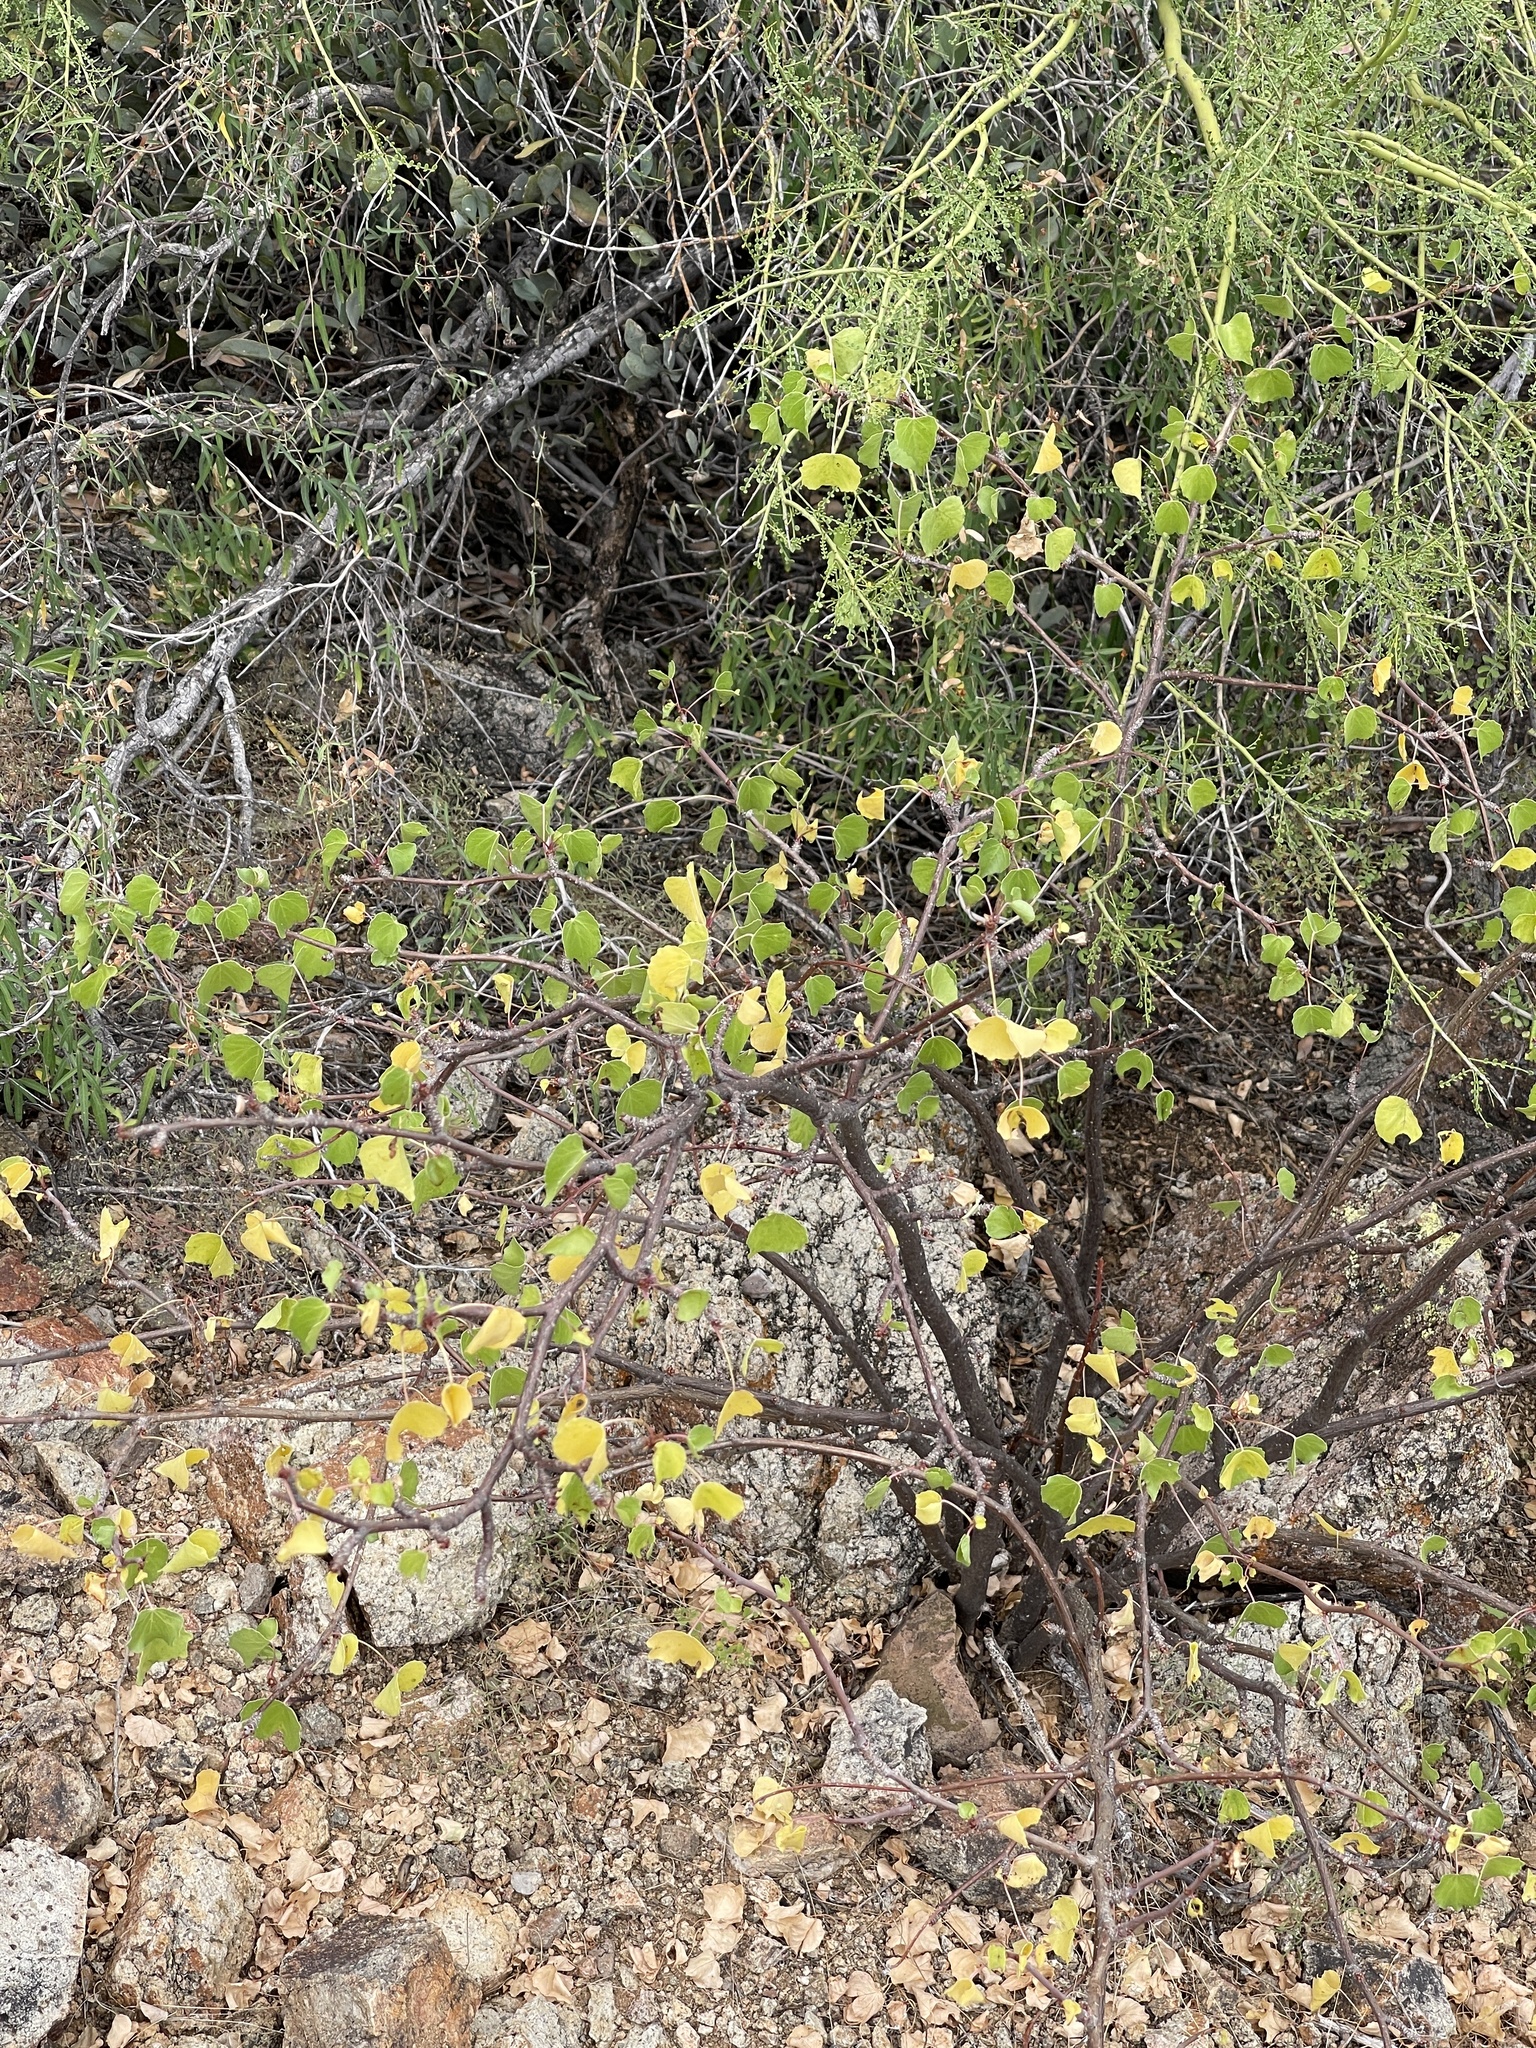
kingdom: Plantae
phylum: Tracheophyta
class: Magnoliopsida
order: Malpighiales
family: Euphorbiaceae
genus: Jatropha
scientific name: Jatropha cardiophylla
